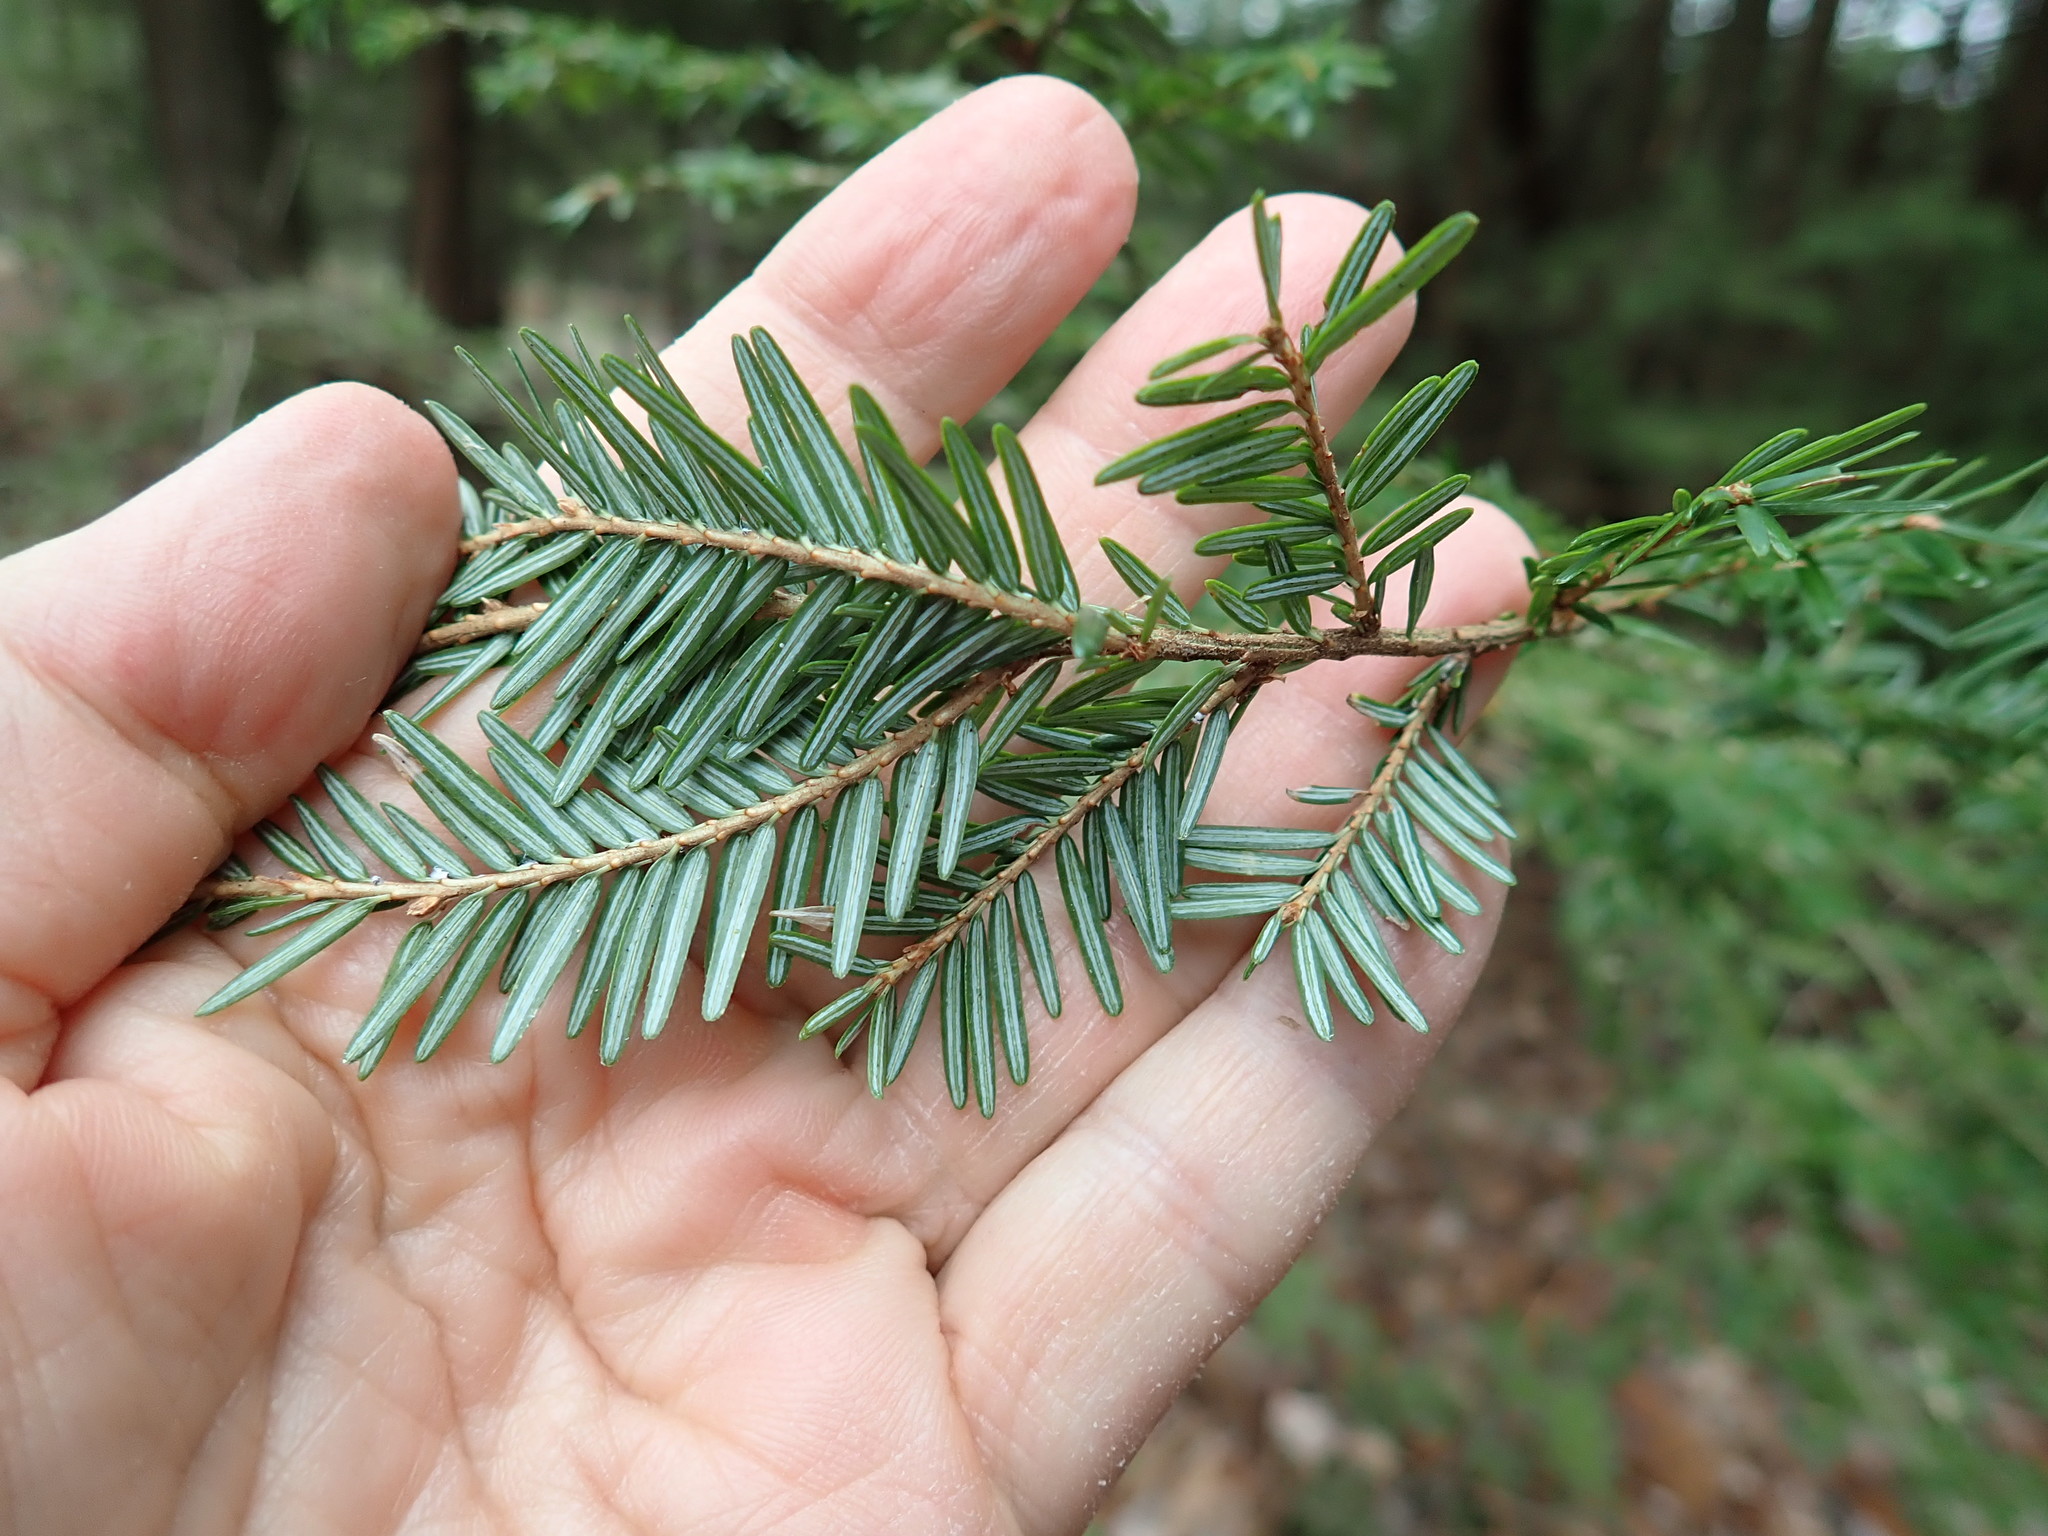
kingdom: Plantae
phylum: Tracheophyta
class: Pinopsida
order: Pinales
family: Pinaceae
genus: Tsuga
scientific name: Tsuga canadensis
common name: Eastern hemlock
